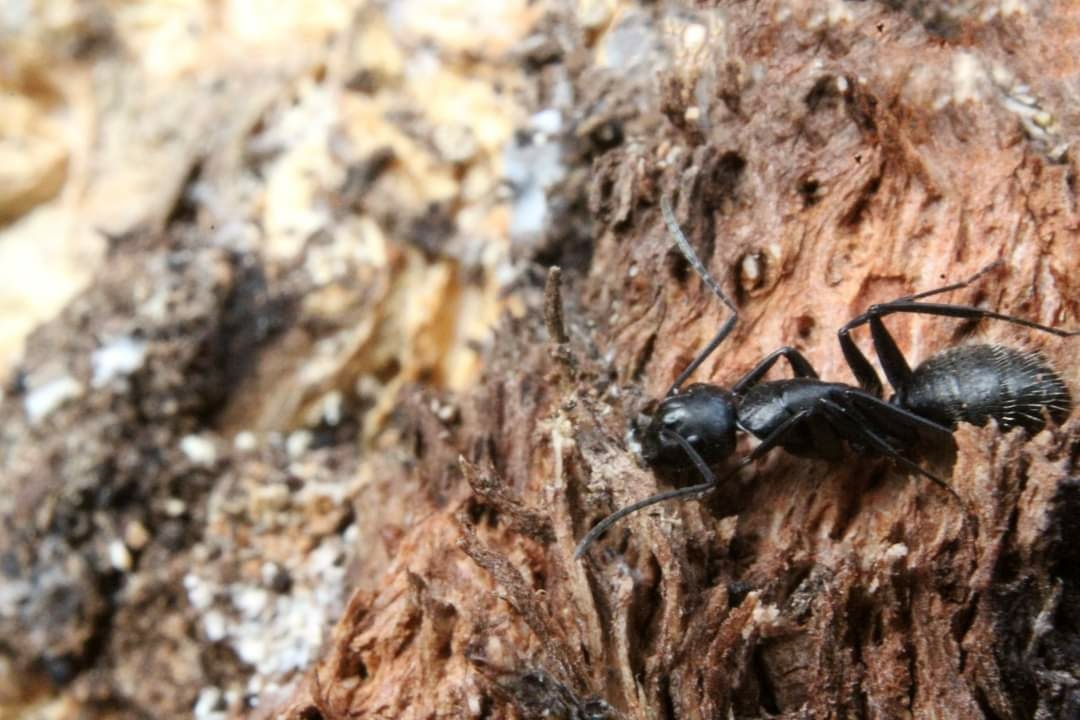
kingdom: Animalia
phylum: Arthropoda
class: Insecta
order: Hymenoptera
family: Formicidae
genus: Camponotus
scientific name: Camponotus vagus
